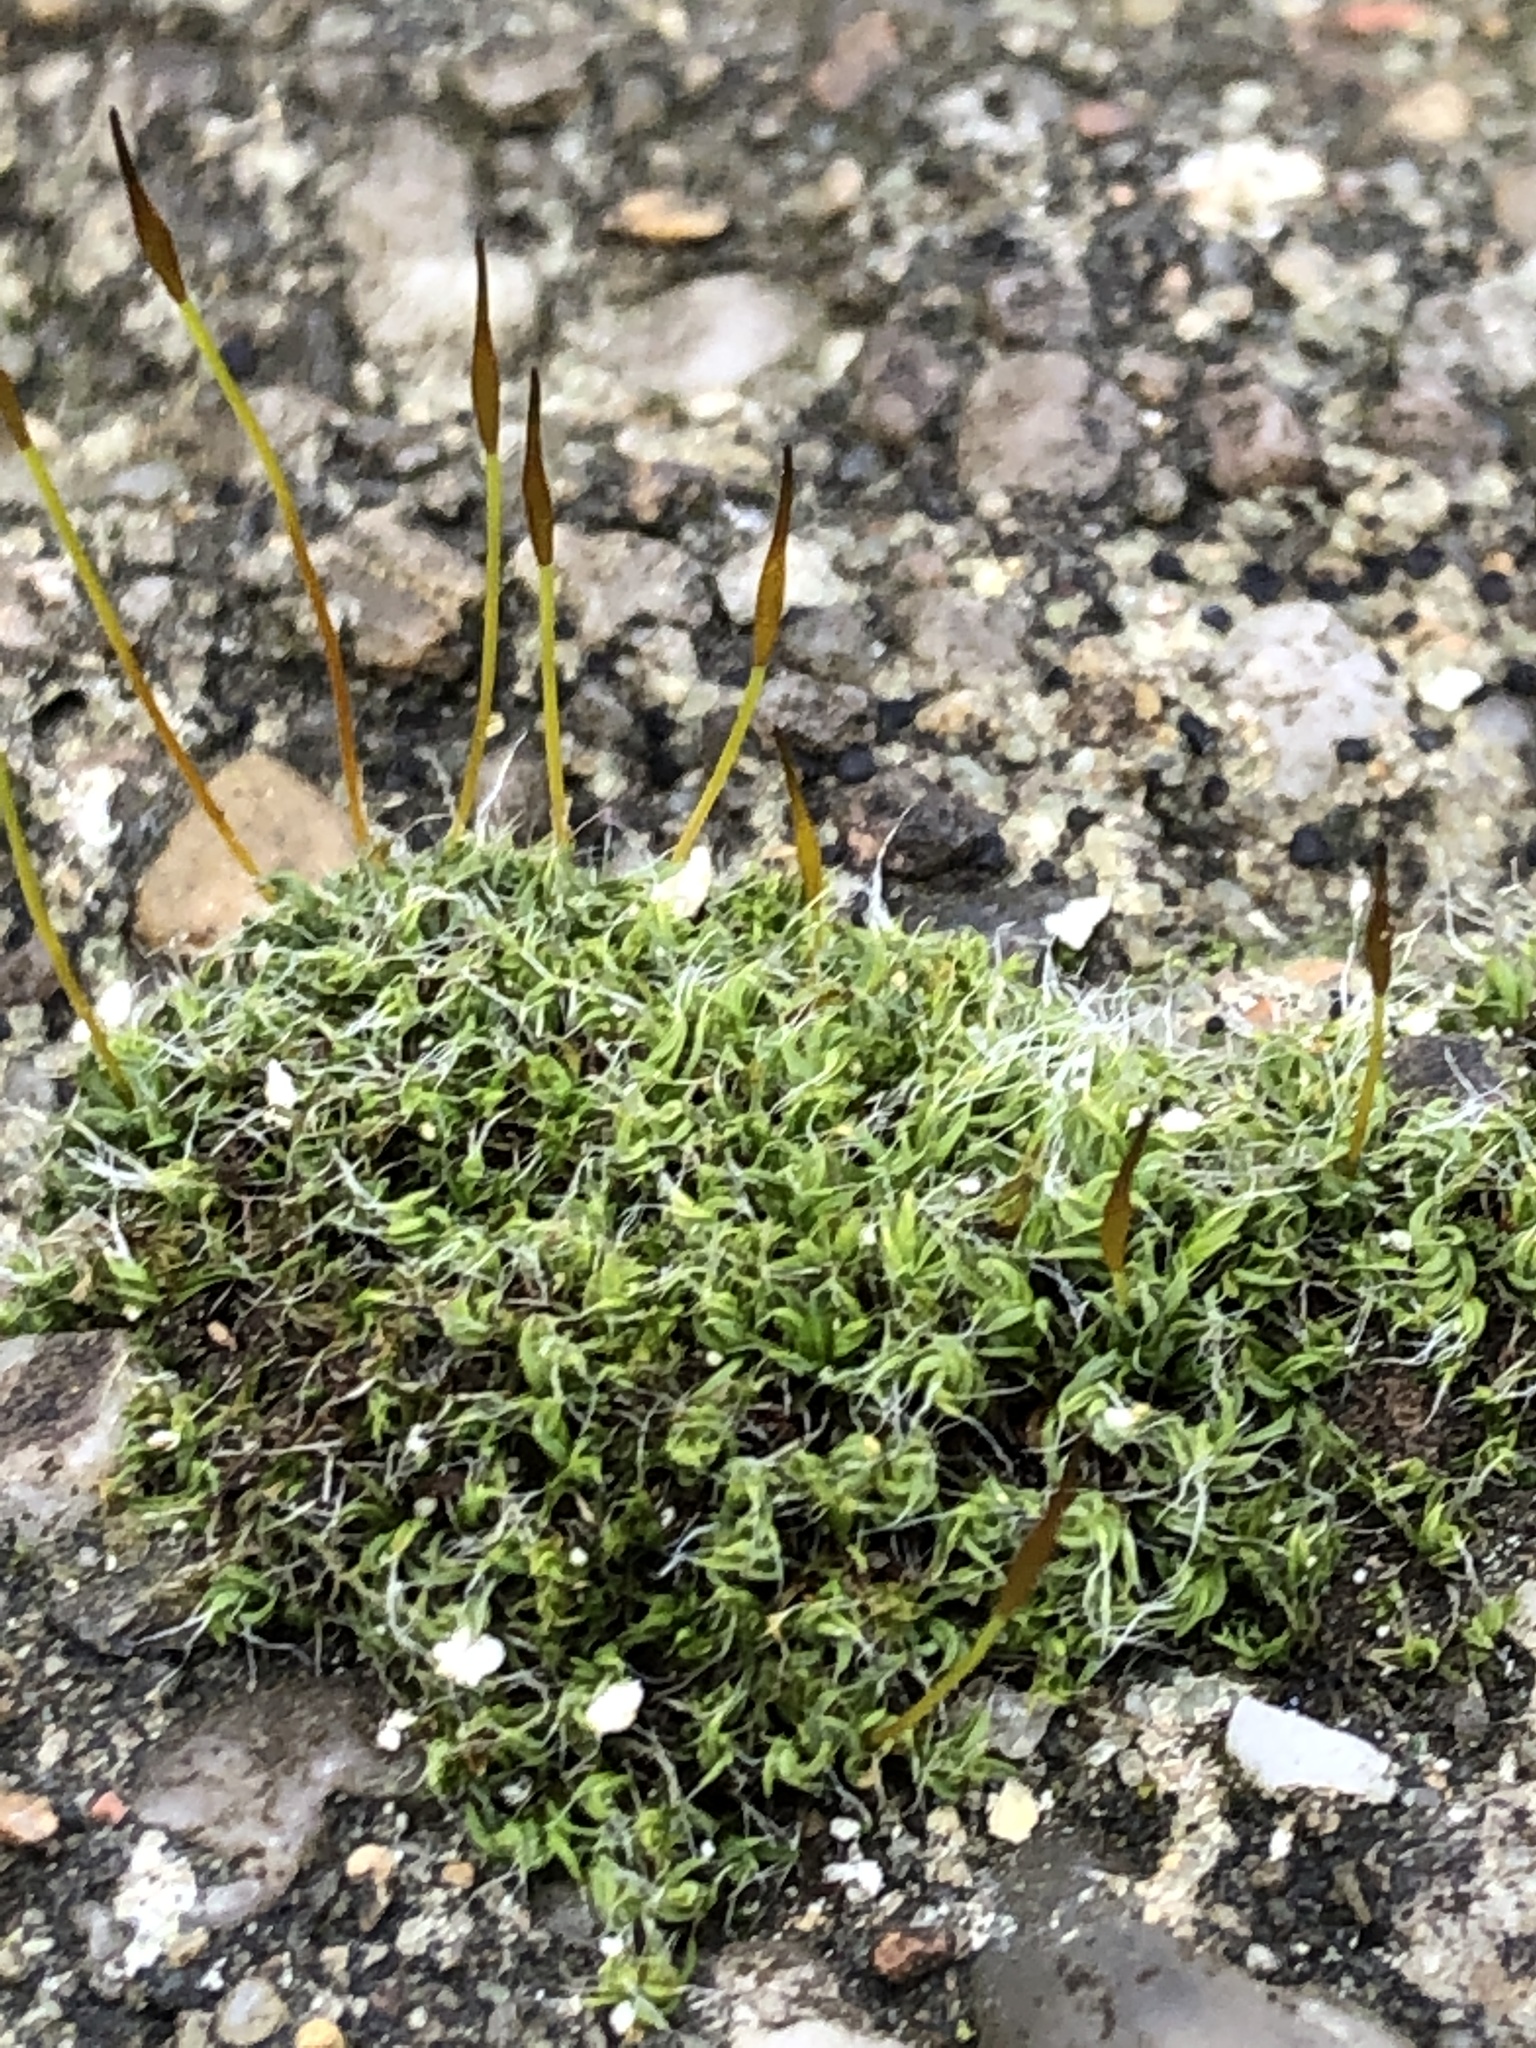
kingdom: Plantae
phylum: Bryophyta
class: Bryopsida
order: Pottiales
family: Pottiaceae
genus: Tortula
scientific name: Tortula muralis
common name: Wall screw-moss
